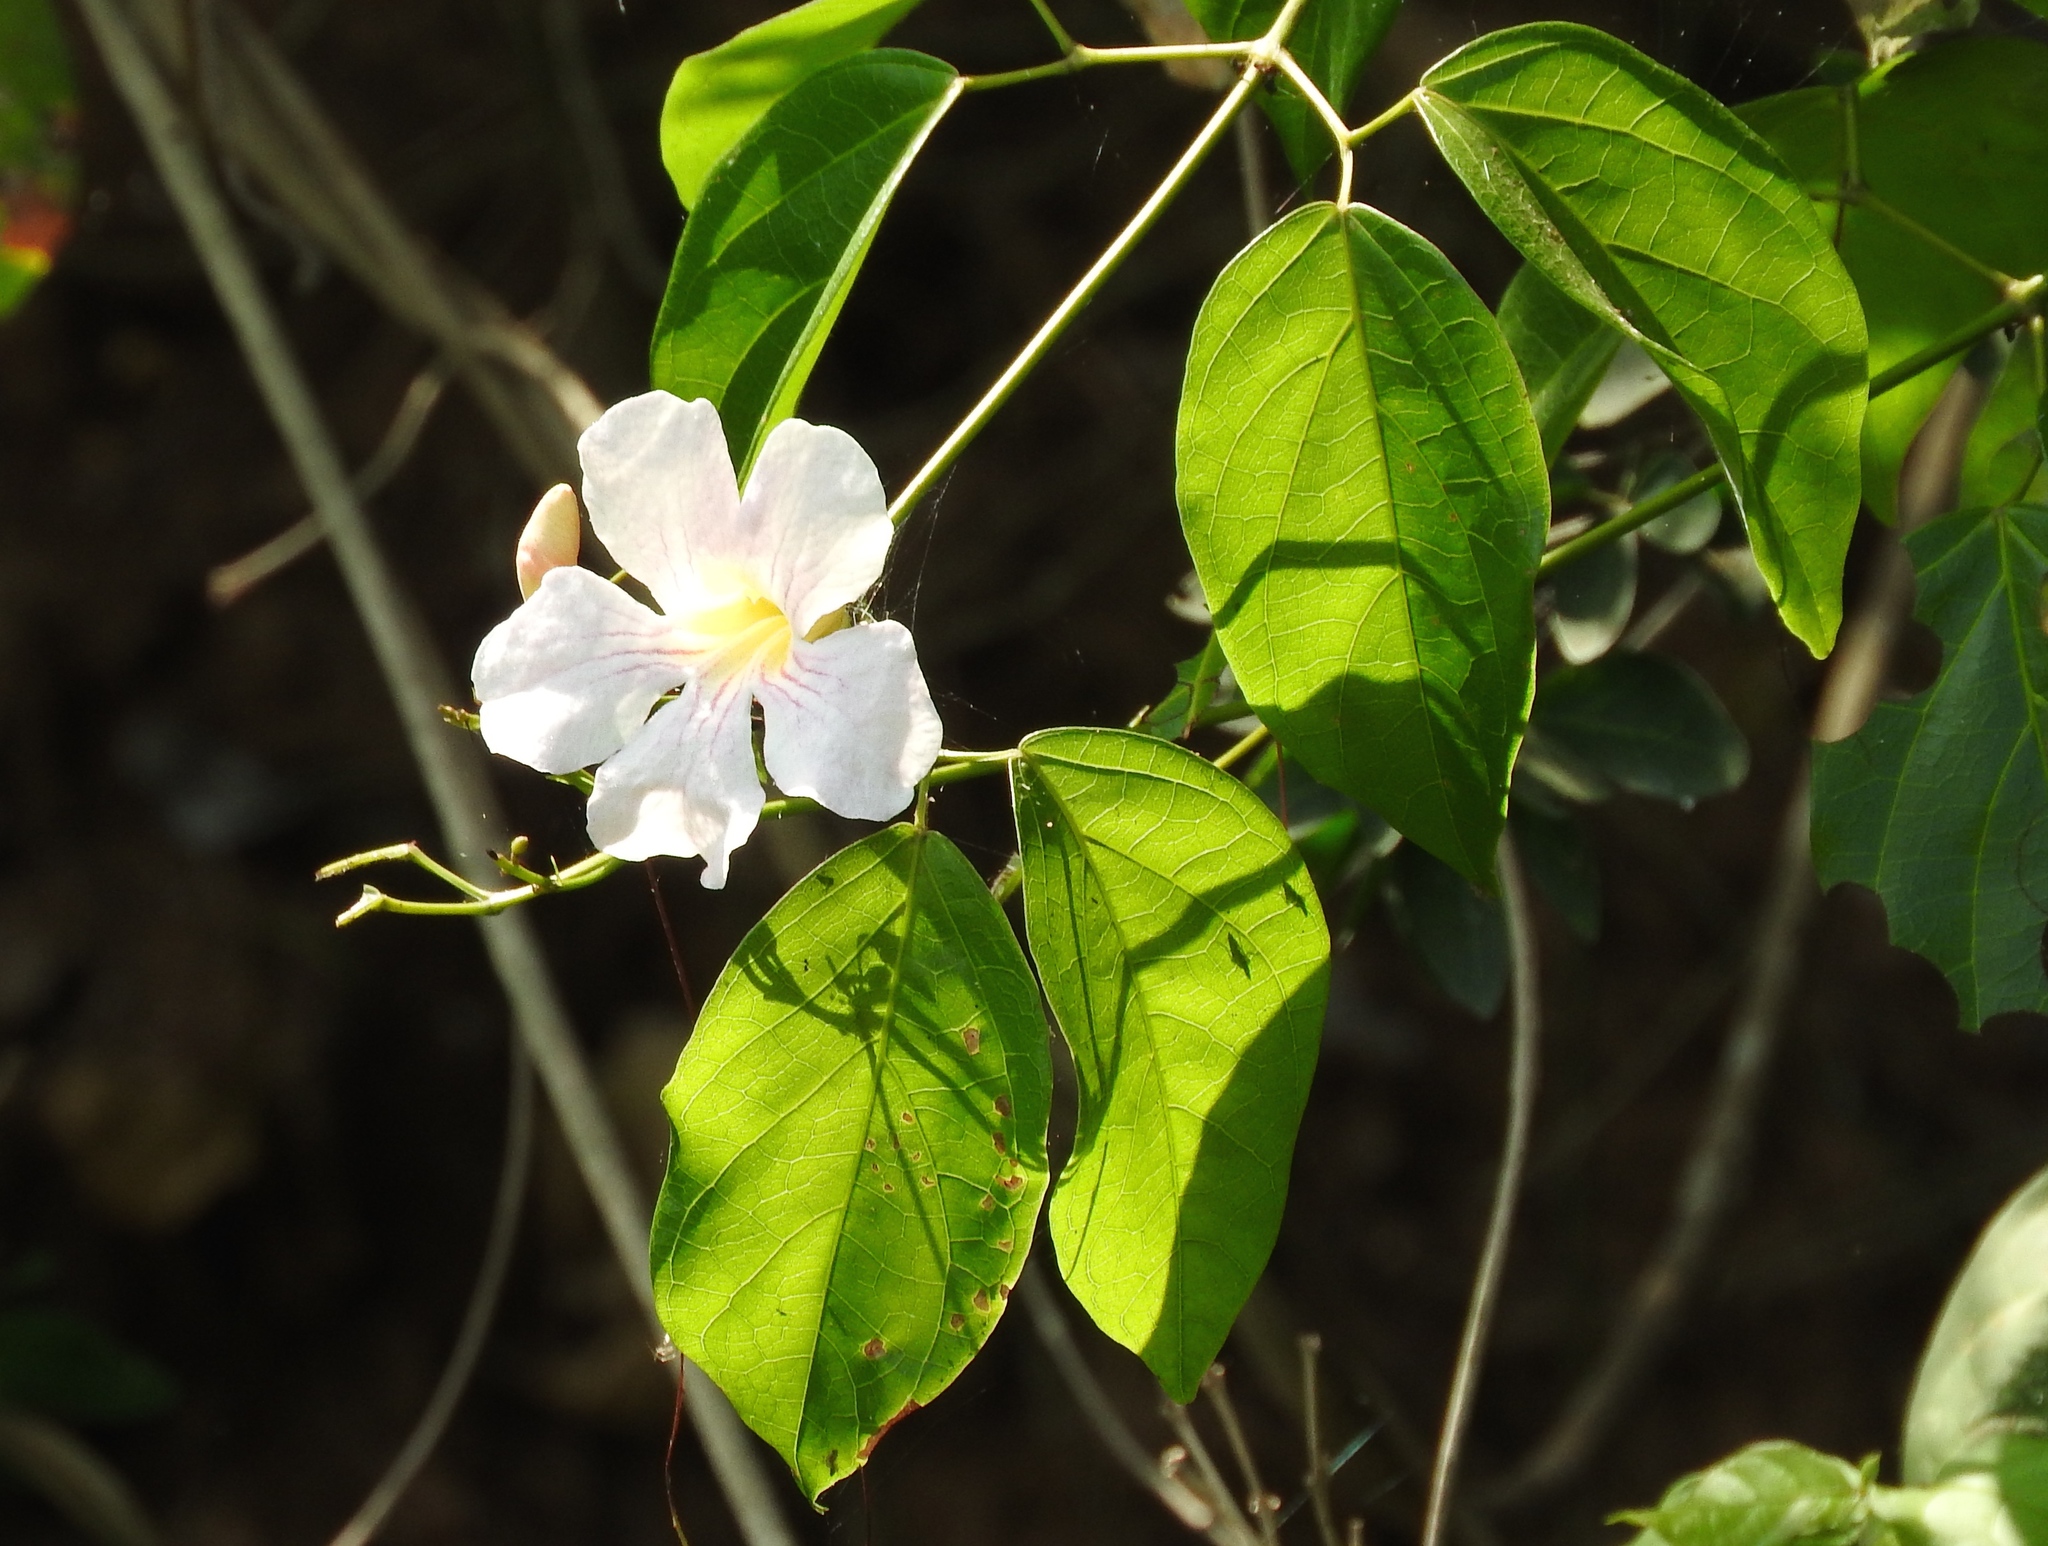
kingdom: Plantae
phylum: Tracheophyta
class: Magnoliopsida
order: Lamiales
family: Bignoniaceae
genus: Bignonia
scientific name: Bignonia potosina
